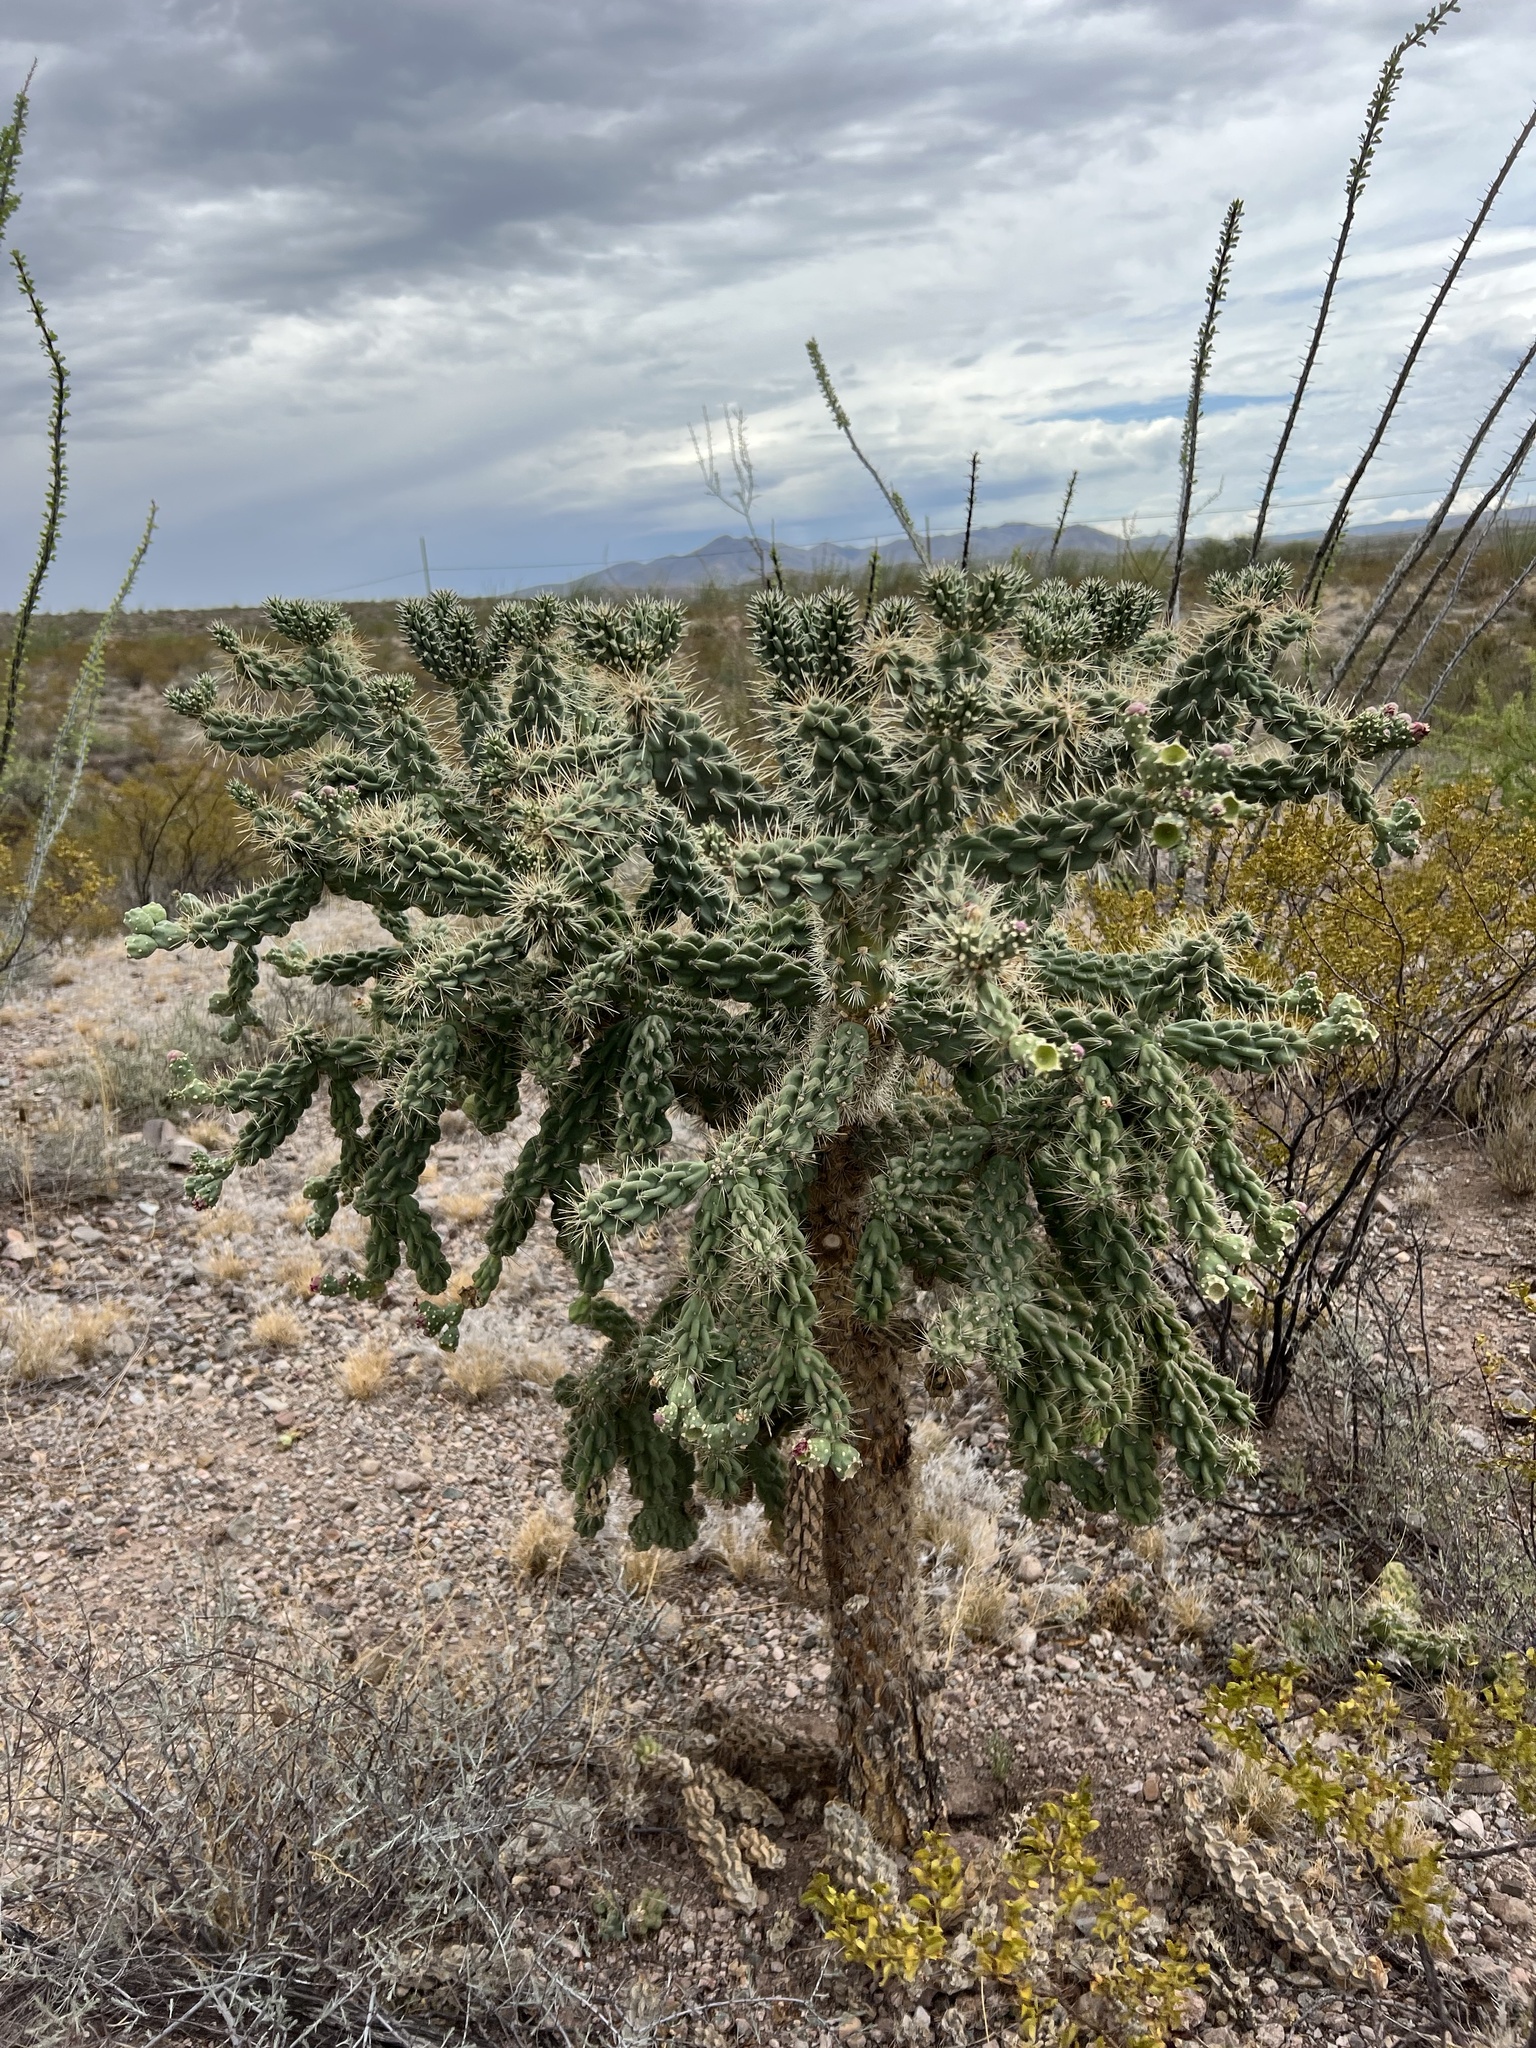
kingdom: Plantae
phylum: Tracheophyta
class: Magnoliopsida
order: Caryophyllales
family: Cactaceae
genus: Cylindropuntia
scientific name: Cylindropuntia fulgida
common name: Jumping cholla
